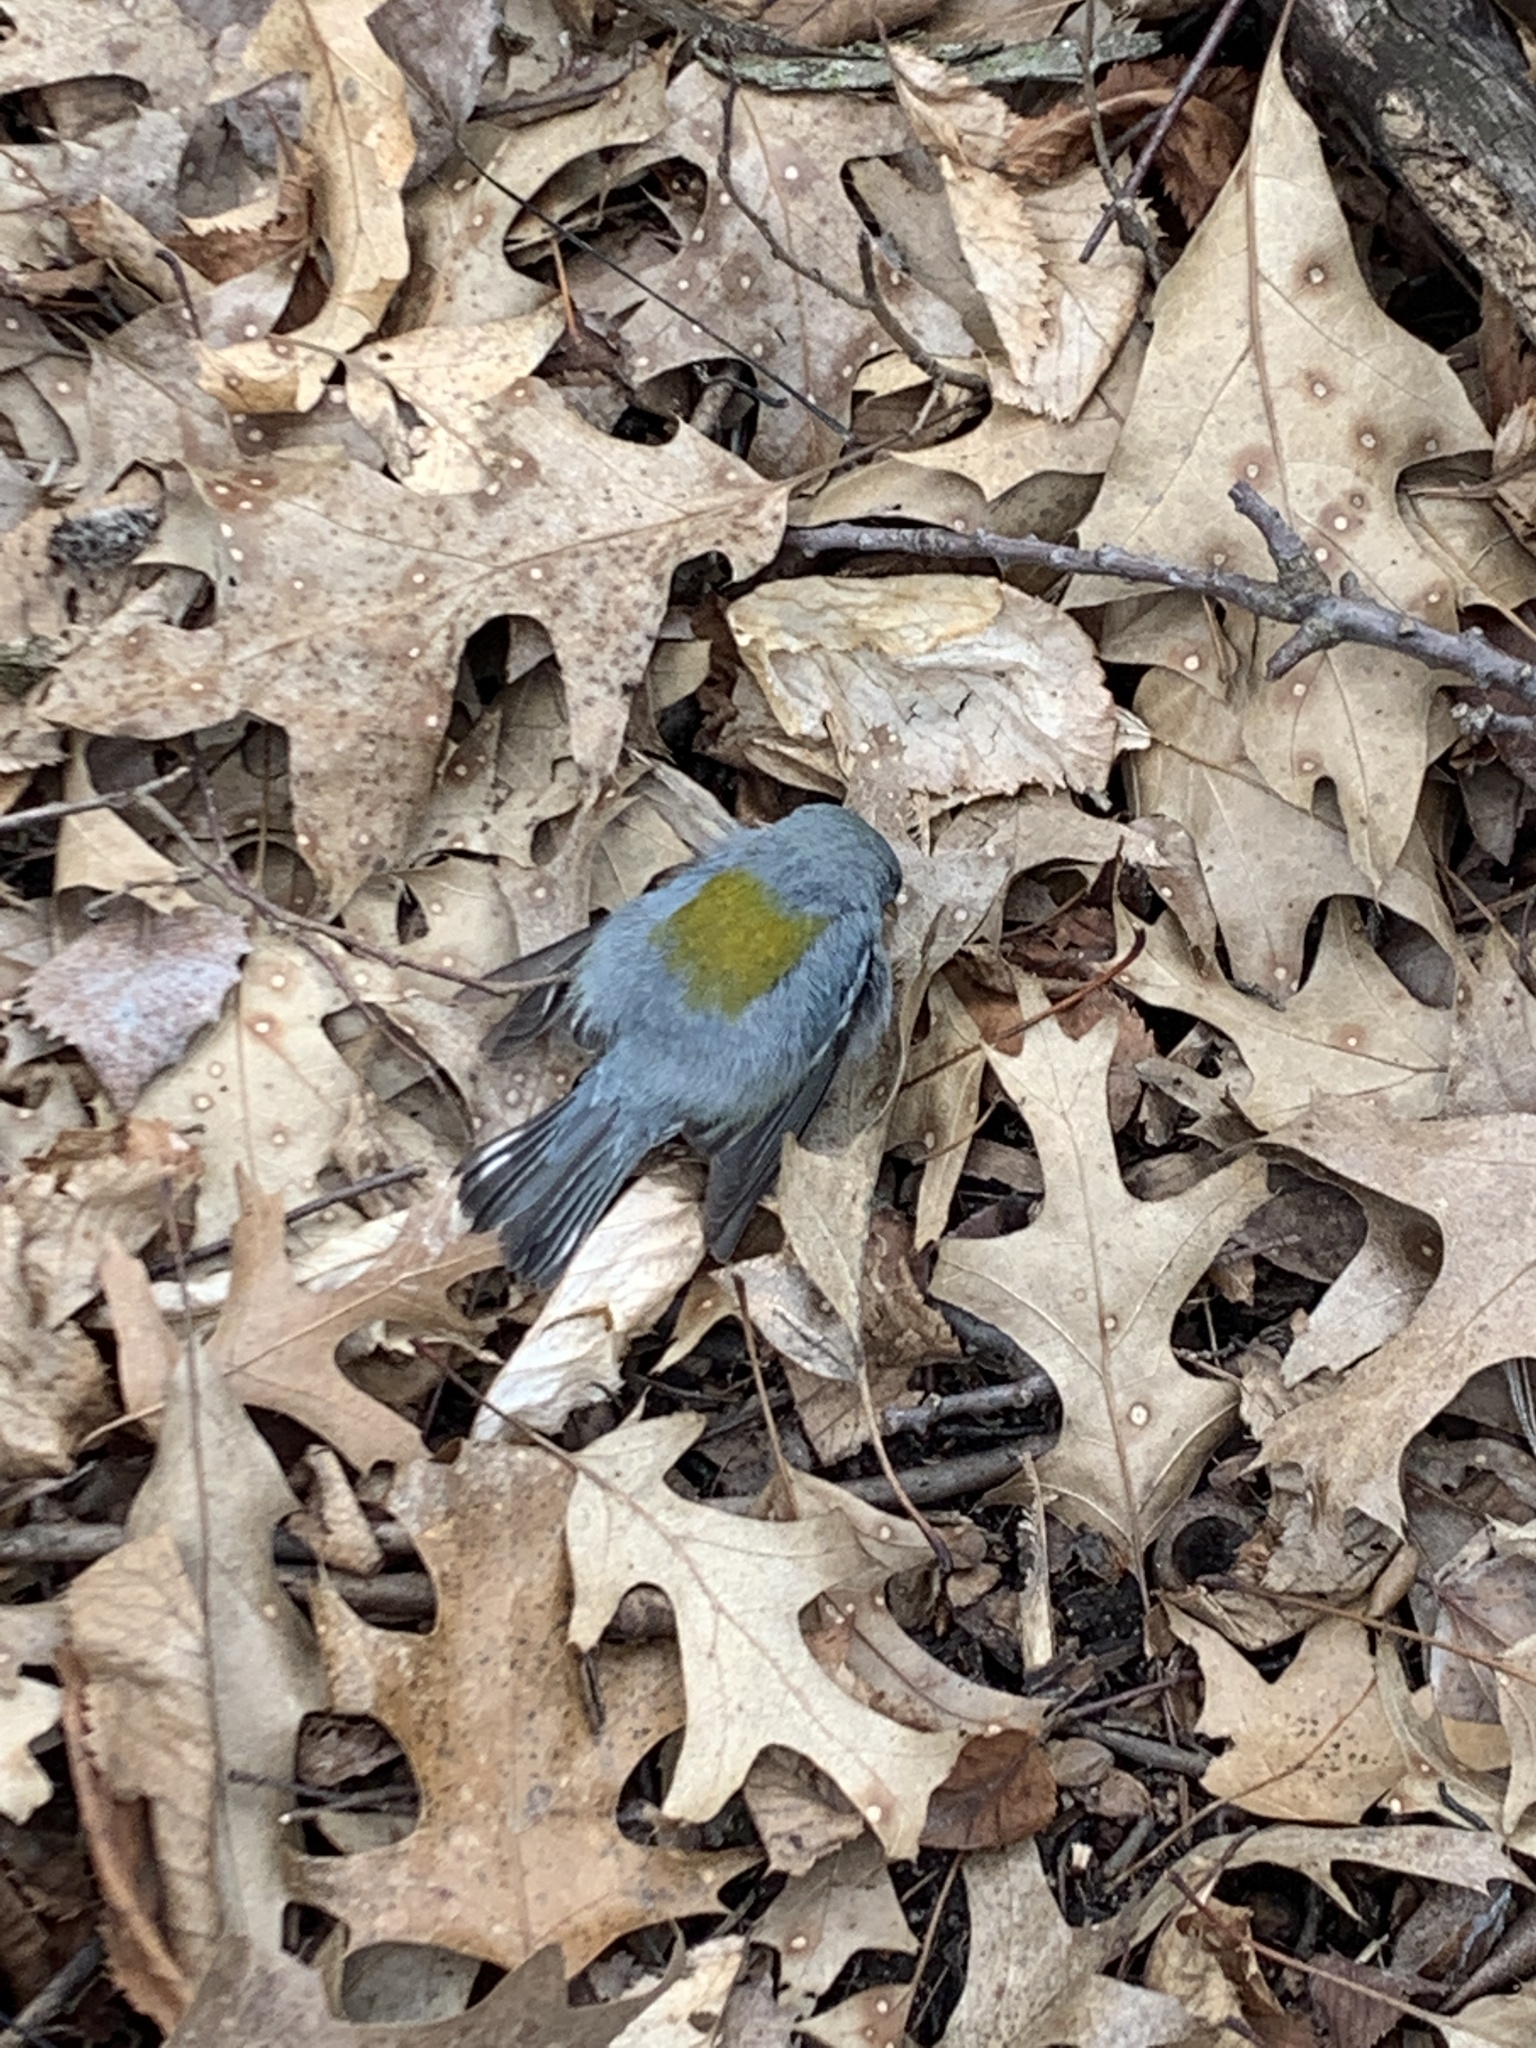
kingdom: Animalia
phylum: Chordata
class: Aves
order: Passeriformes
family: Parulidae
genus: Setophaga
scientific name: Setophaga americana
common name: Northern parula
